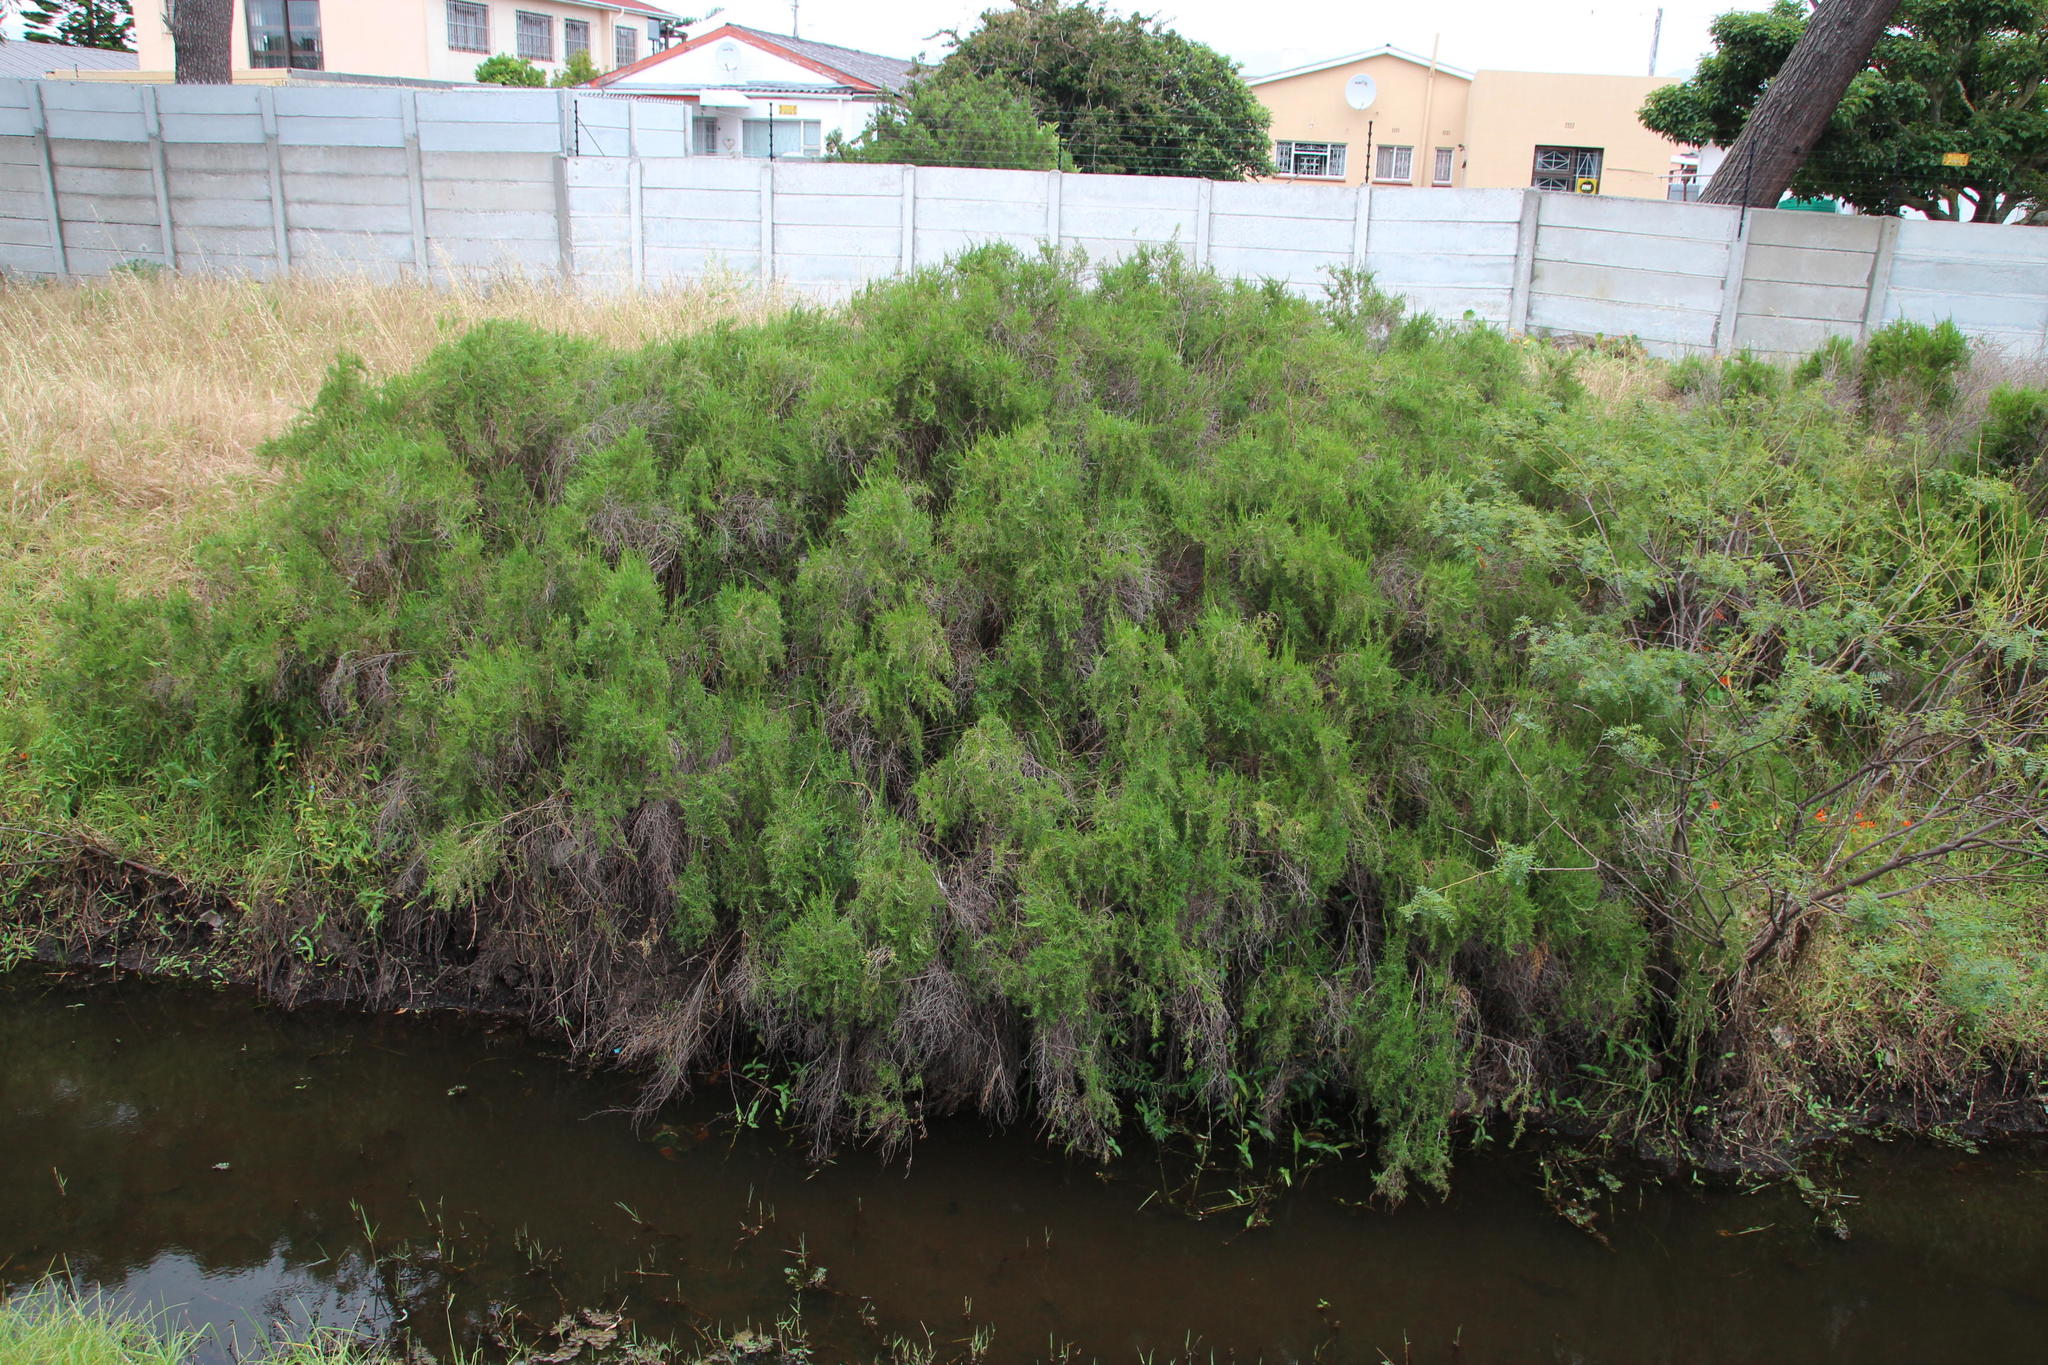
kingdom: Plantae
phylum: Tracheophyta
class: Magnoliopsida
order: Rosales
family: Rosaceae
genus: Cliffortia
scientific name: Cliffortia strobilifera
